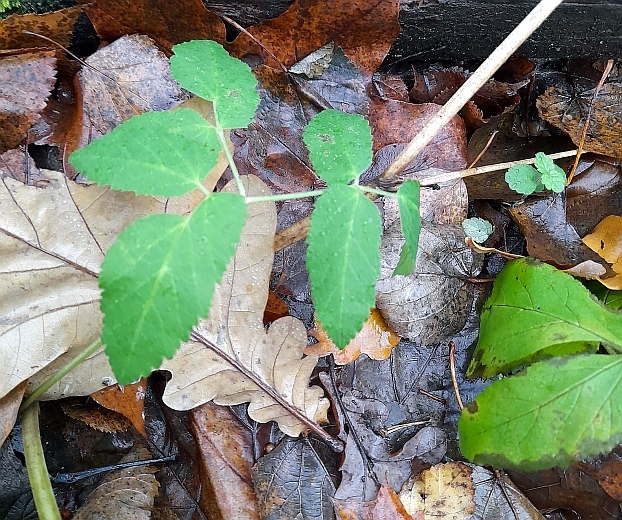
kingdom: Plantae
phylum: Tracheophyta
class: Magnoliopsida
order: Apiales
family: Apiaceae
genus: Aegopodium
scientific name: Aegopodium podagraria
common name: Ground-elder
